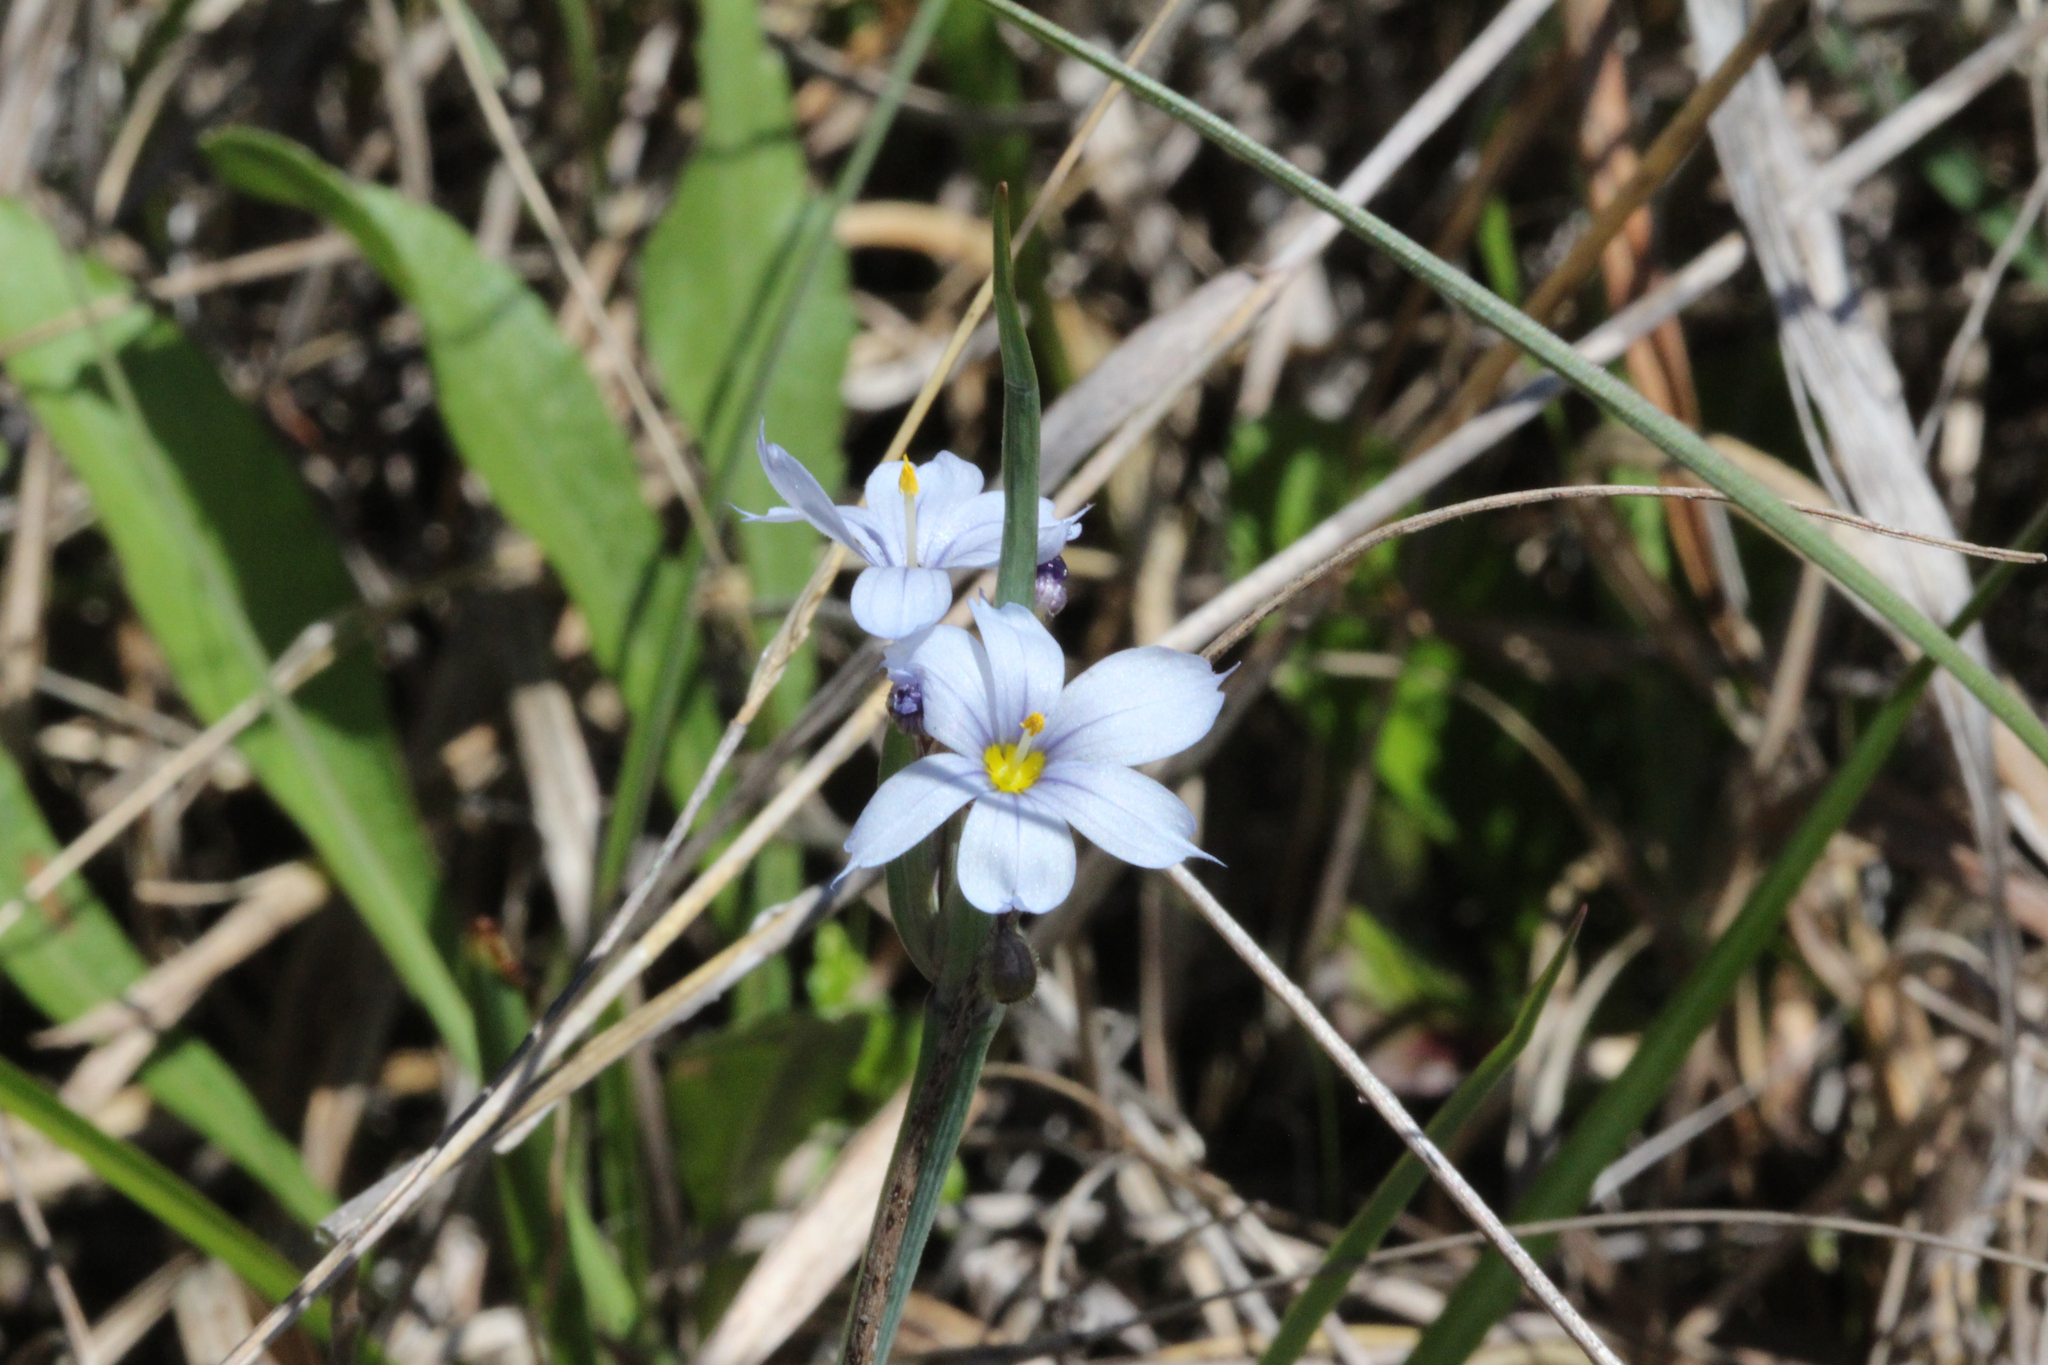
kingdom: Plantae
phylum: Tracheophyta
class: Liliopsida
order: Asparagales
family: Iridaceae
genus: Sisyrinchium
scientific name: Sisyrinchium albidum
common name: Pale blue-eyed-grass
